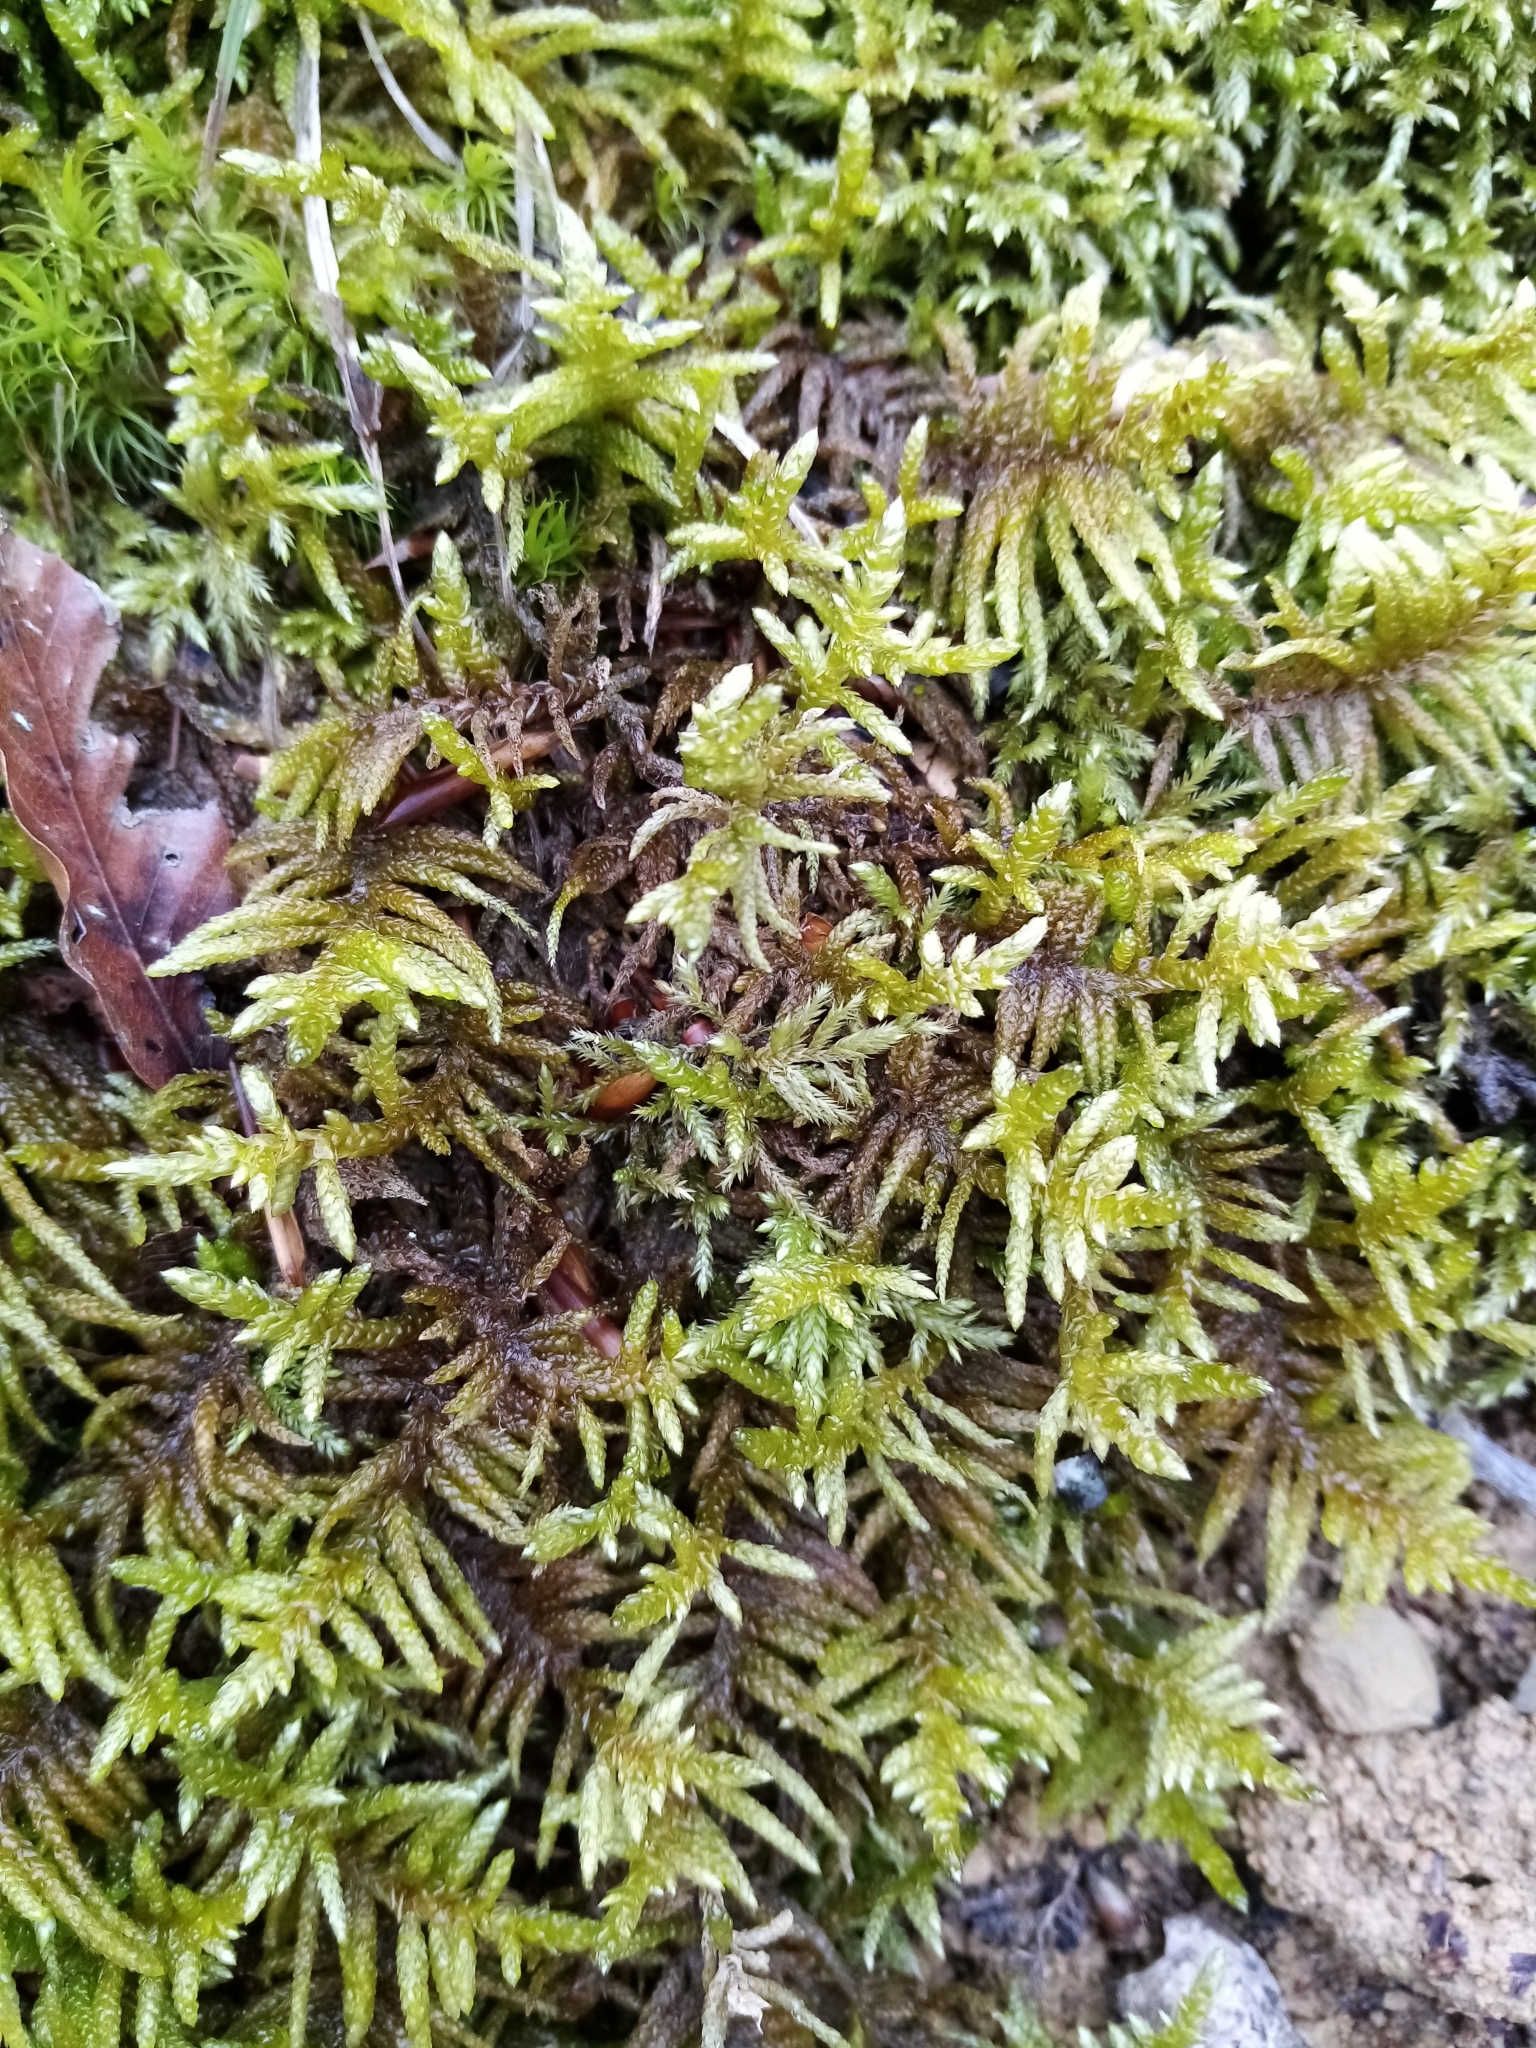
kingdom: Plantae
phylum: Bryophyta
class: Bryopsida
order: Hypnales
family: Brachytheciaceae
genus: Pseudoscleropodium
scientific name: Pseudoscleropodium purum
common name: Neat feather-moss
